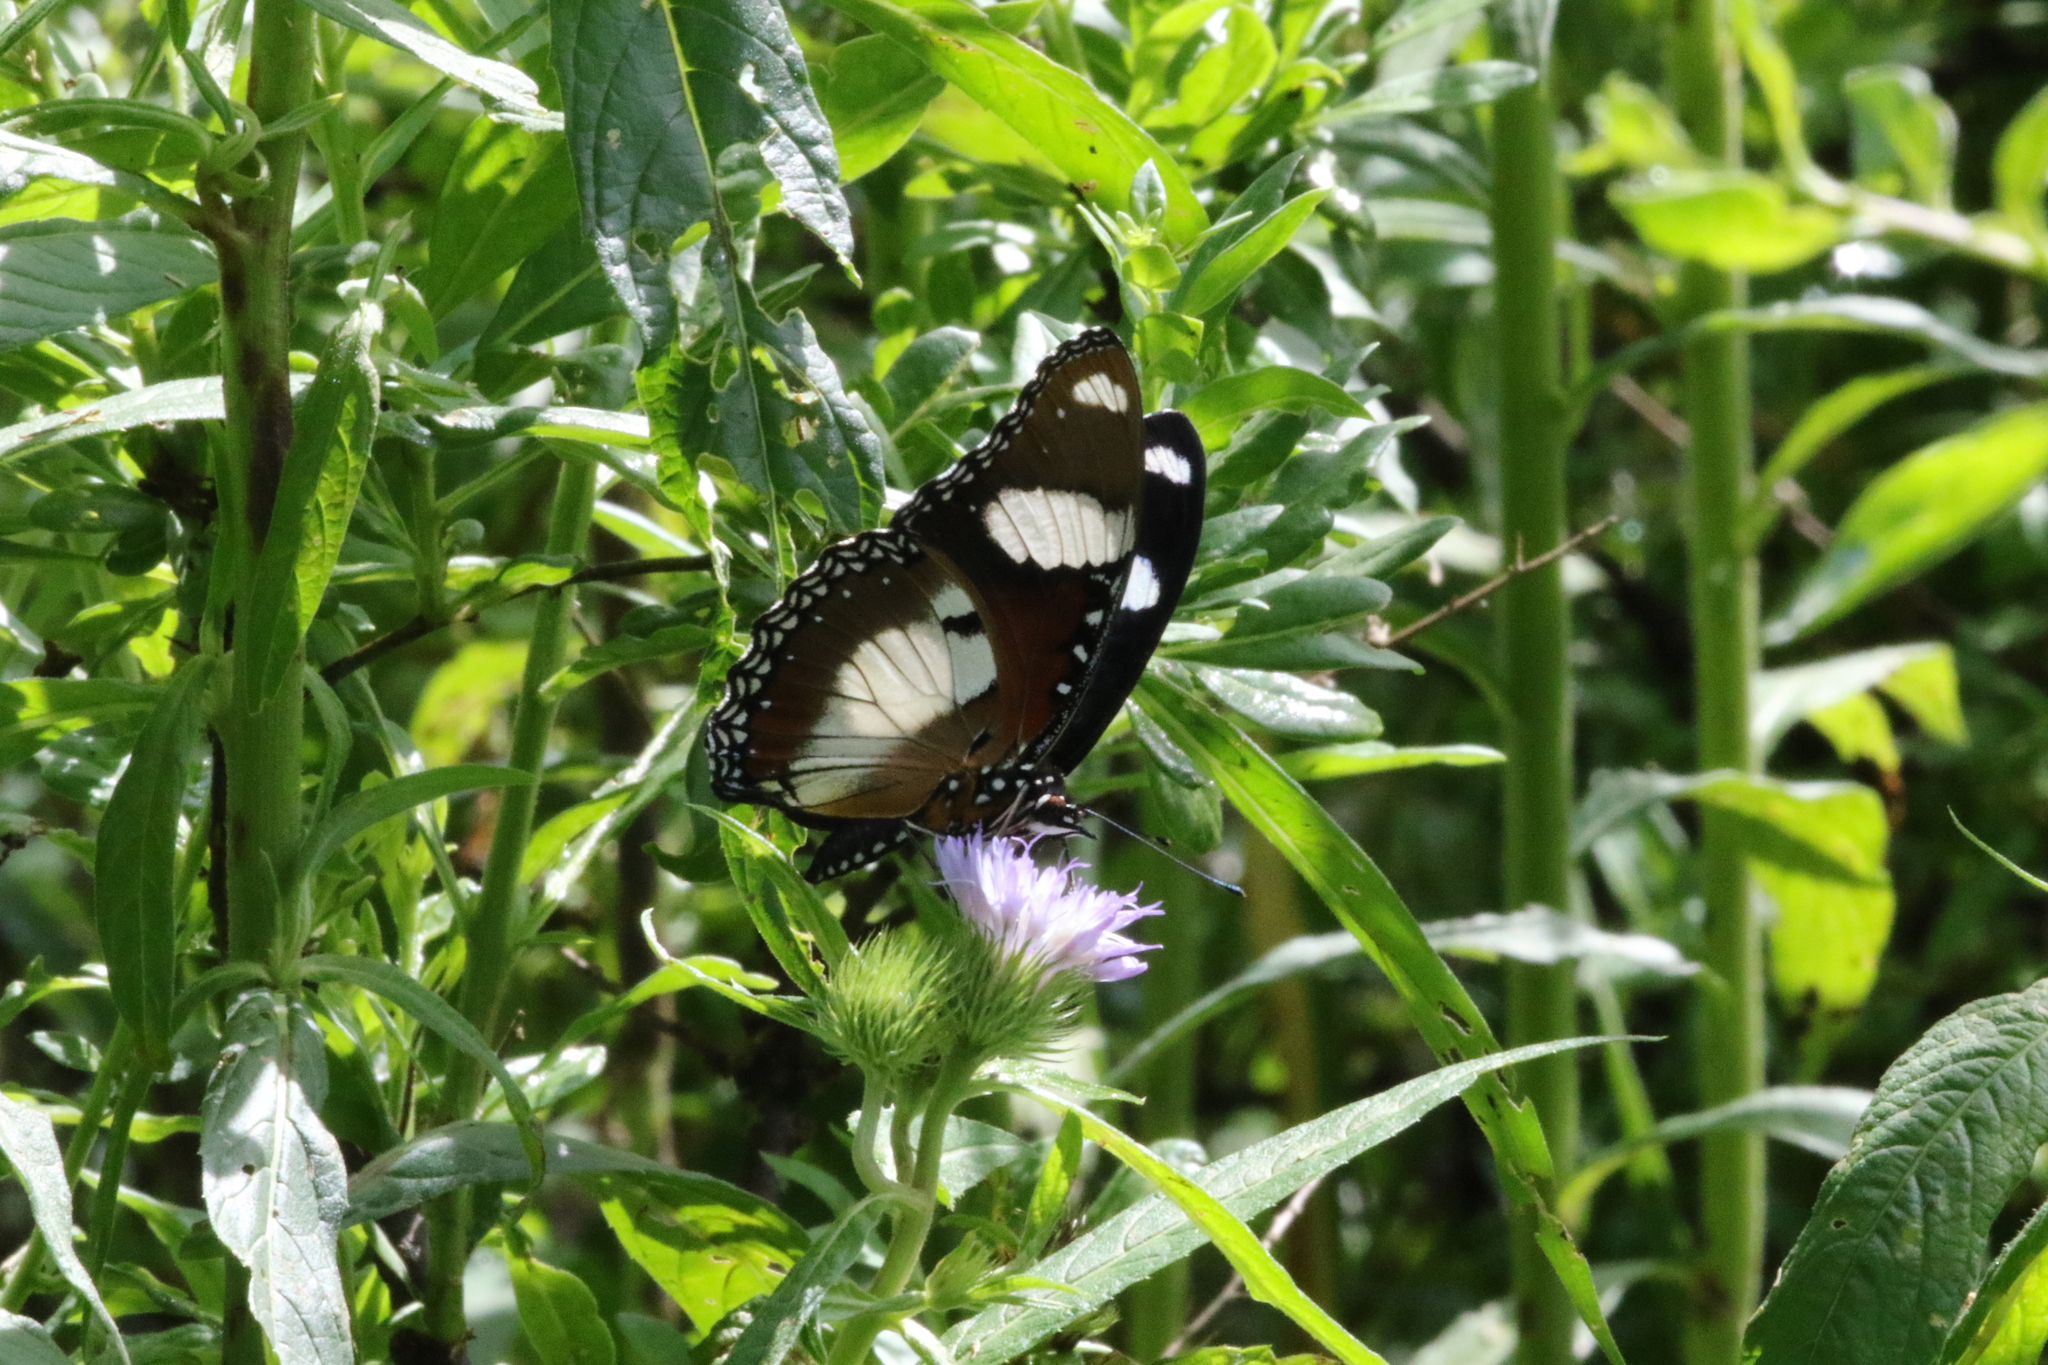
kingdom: Animalia
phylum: Arthropoda
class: Insecta
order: Lepidoptera
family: Nymphalidae
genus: Hypolimnas
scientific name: Hypolimnas misippus
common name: False plain tiger
